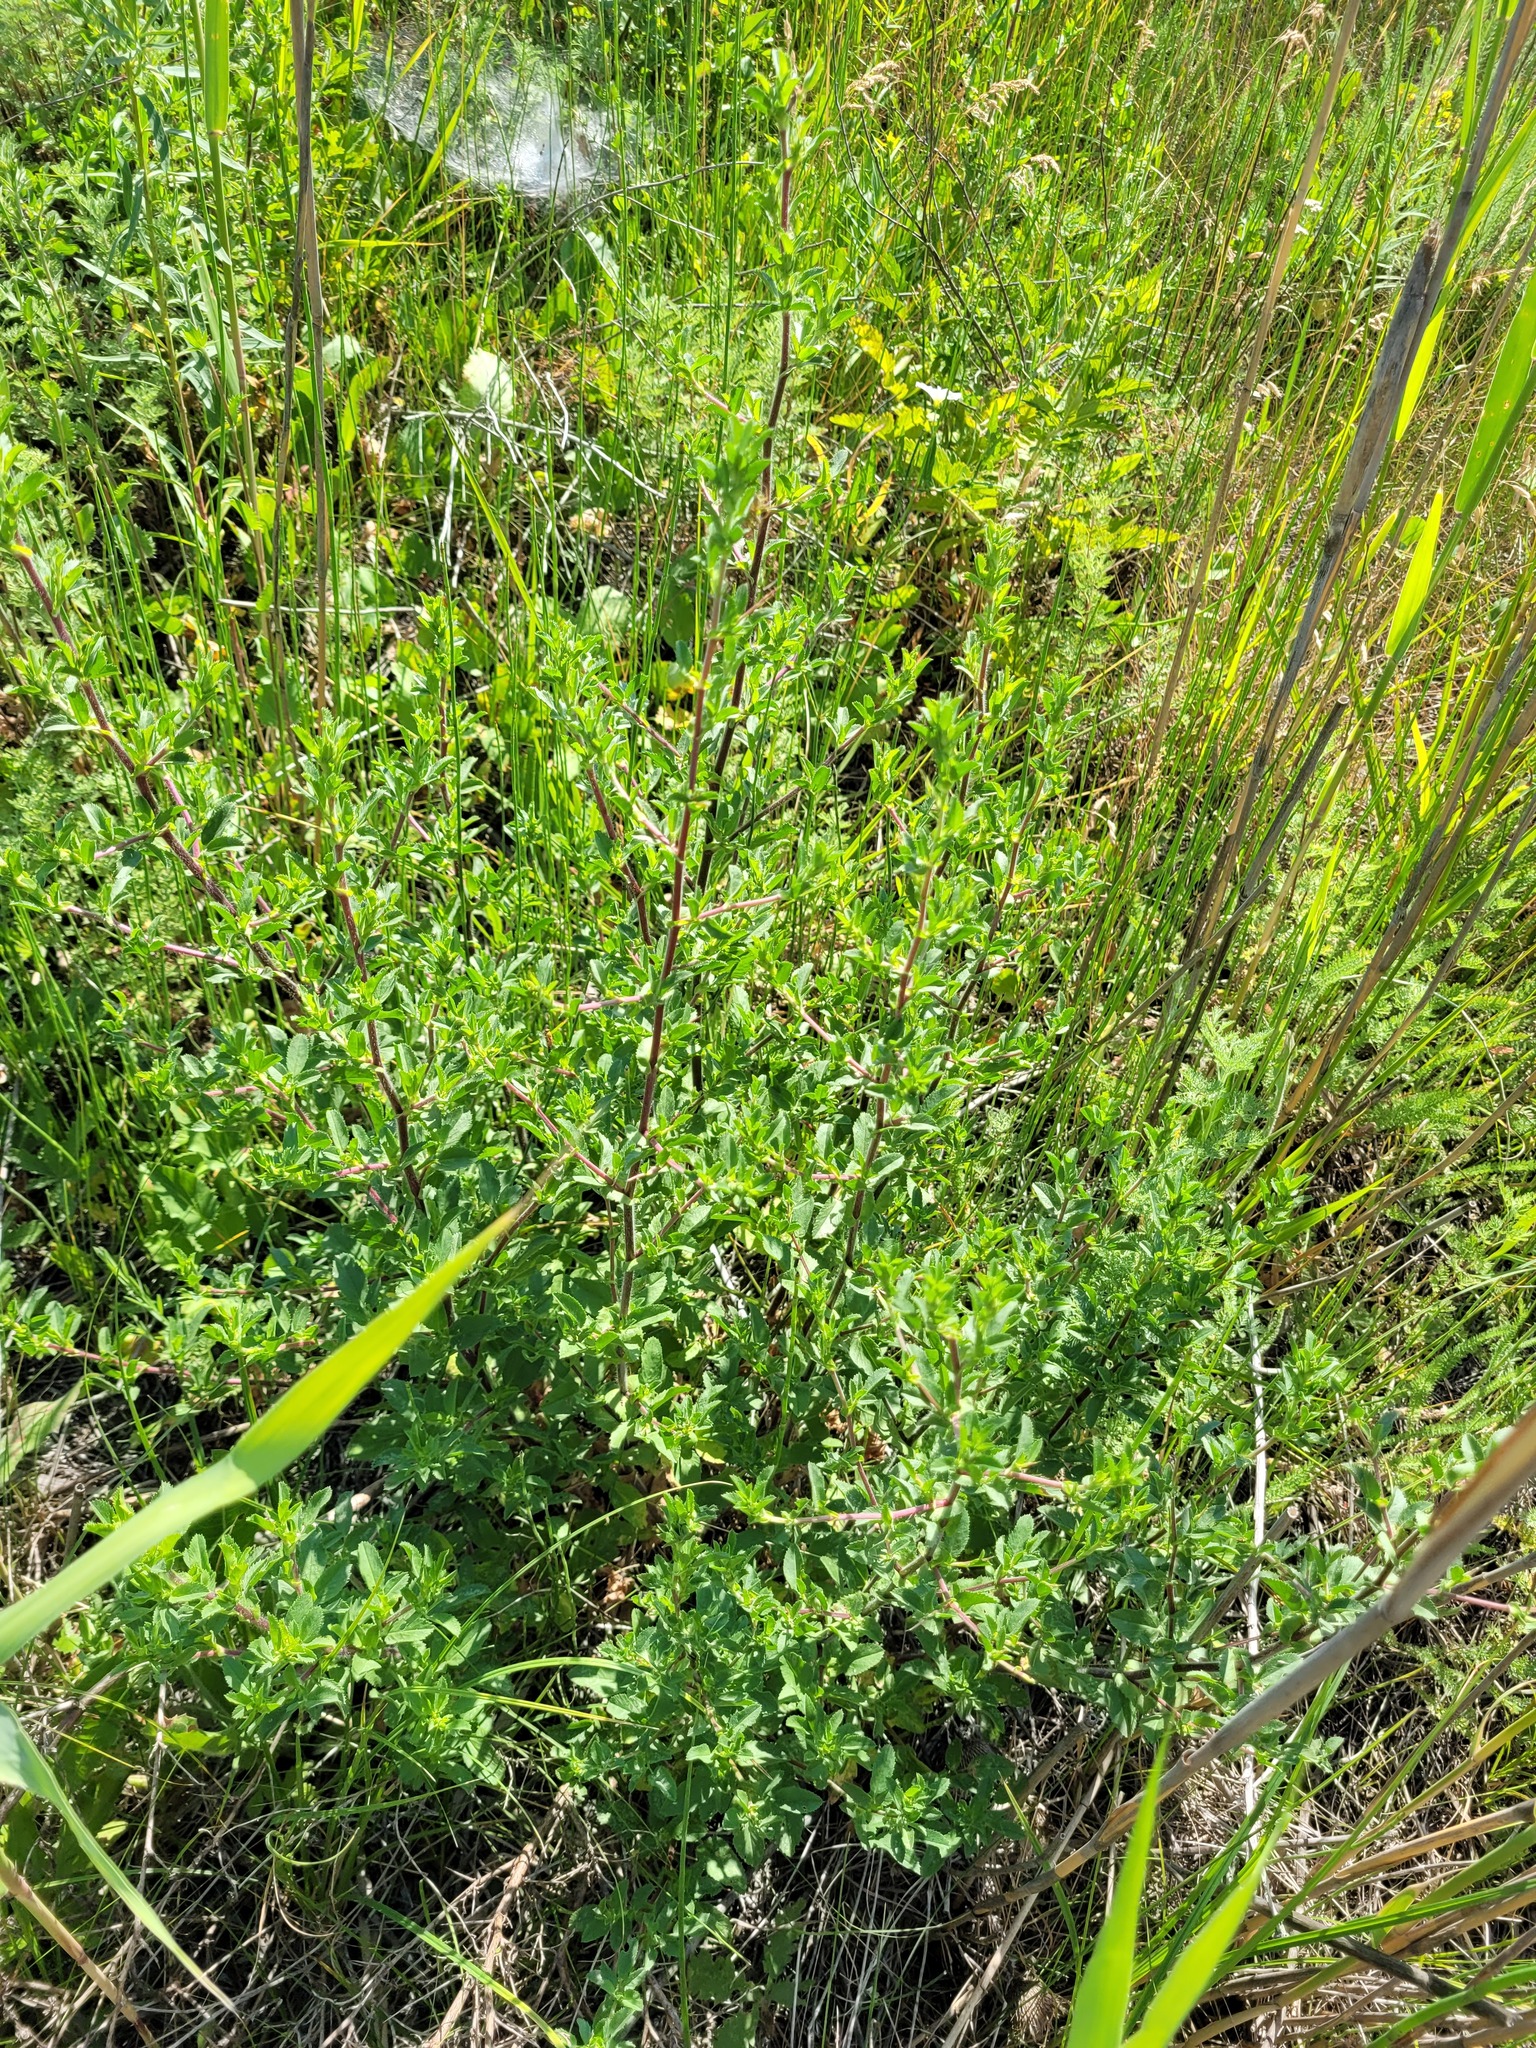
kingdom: Plantae
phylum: Tracheophyta
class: Magnoliopsida
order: Fabales
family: Fabaceae
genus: Ononis
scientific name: Ononis arvensis
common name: Field restharrow
